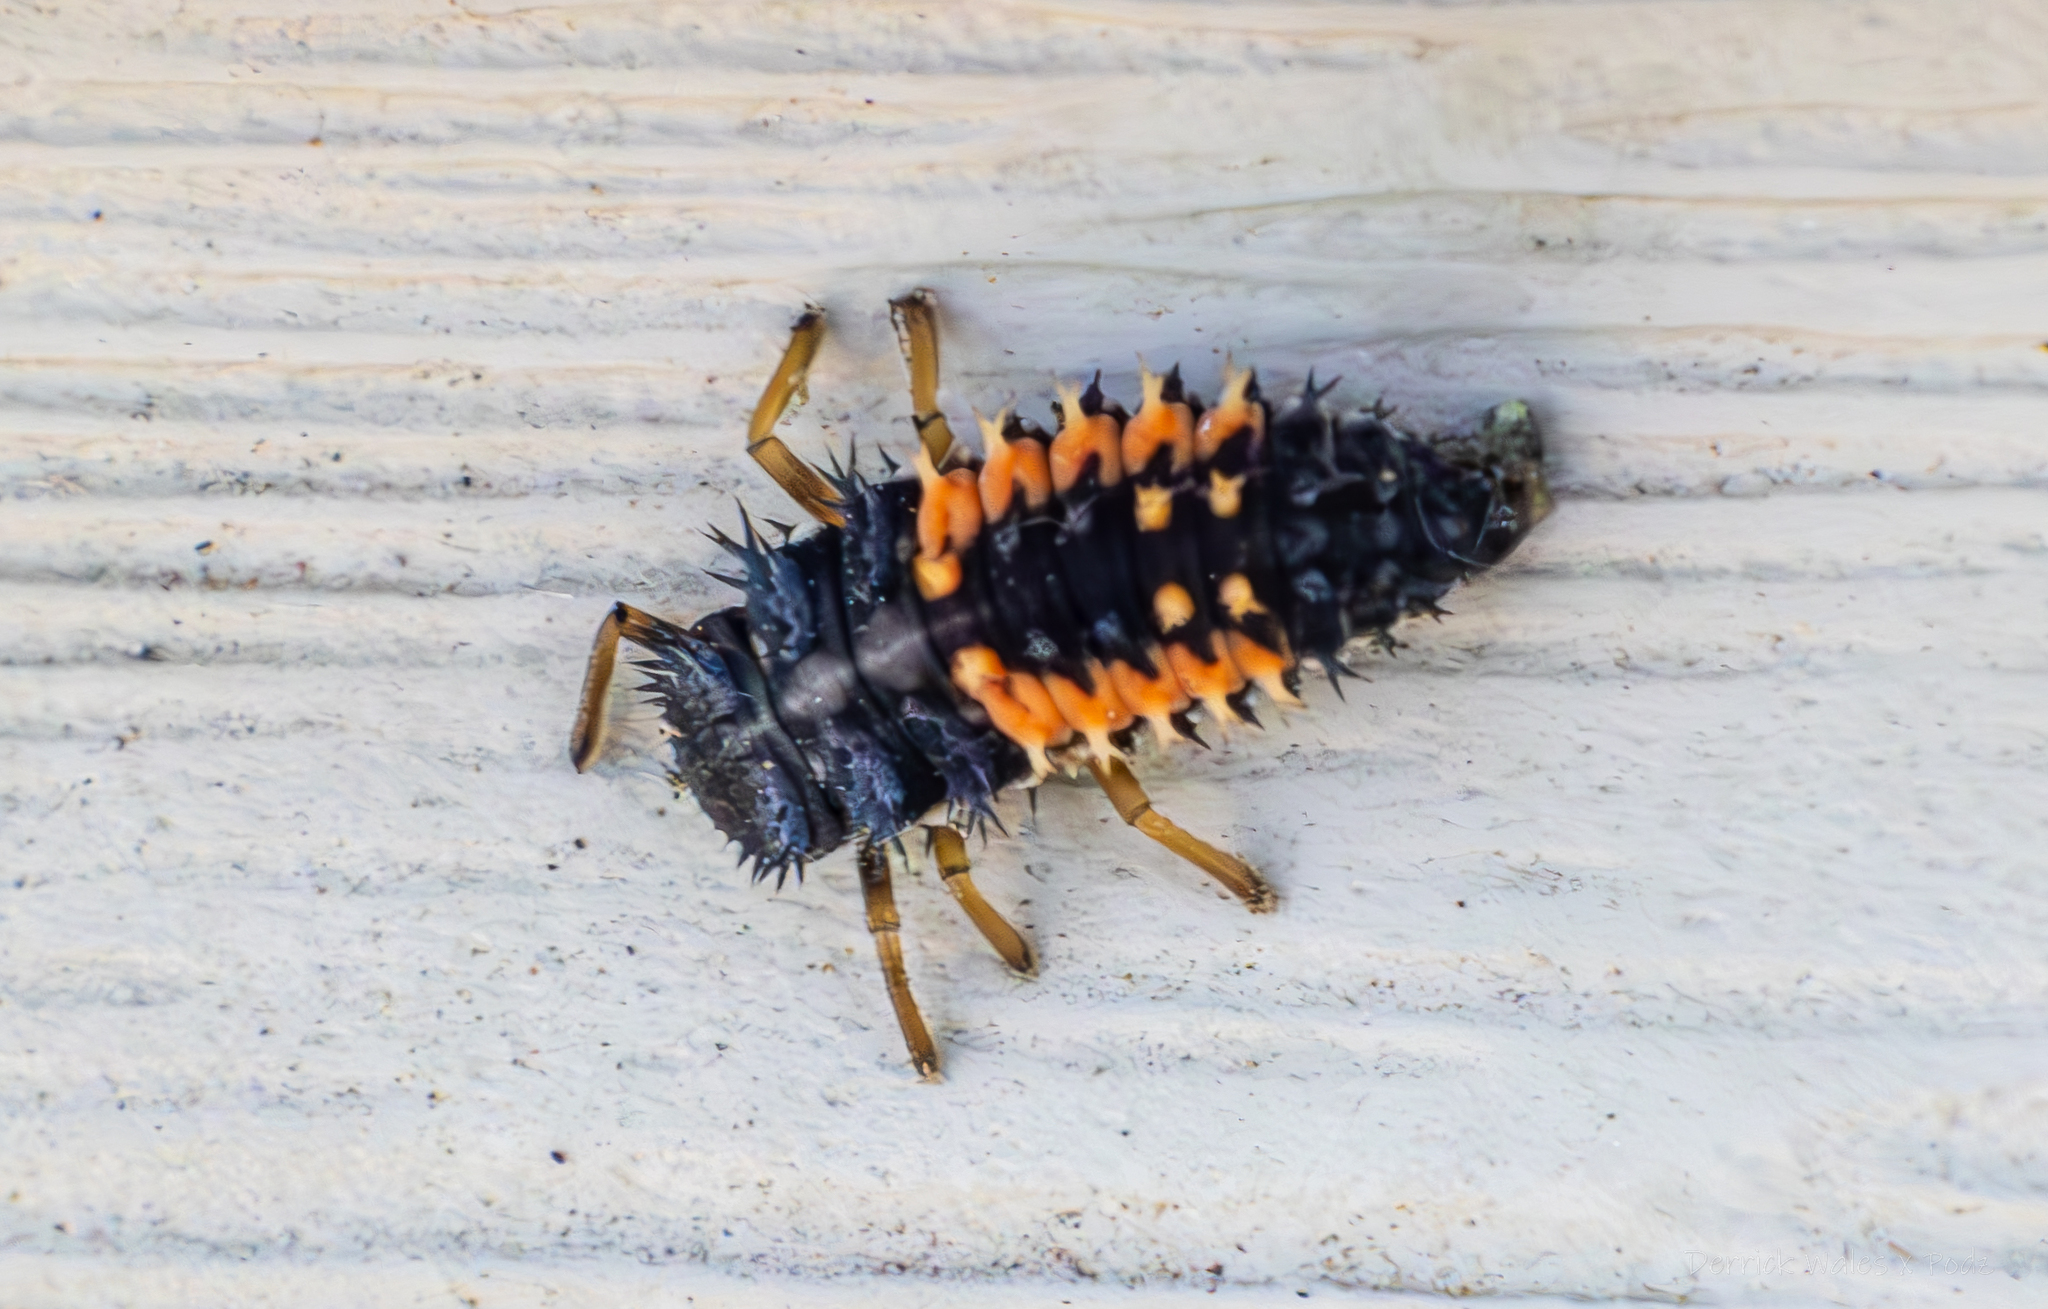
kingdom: Animalia
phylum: Arthropoda
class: Insecta
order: Coleoptera
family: Coccinellidae
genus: Harmonia
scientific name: Harmonia axyridis
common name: Harlequin ladybird
